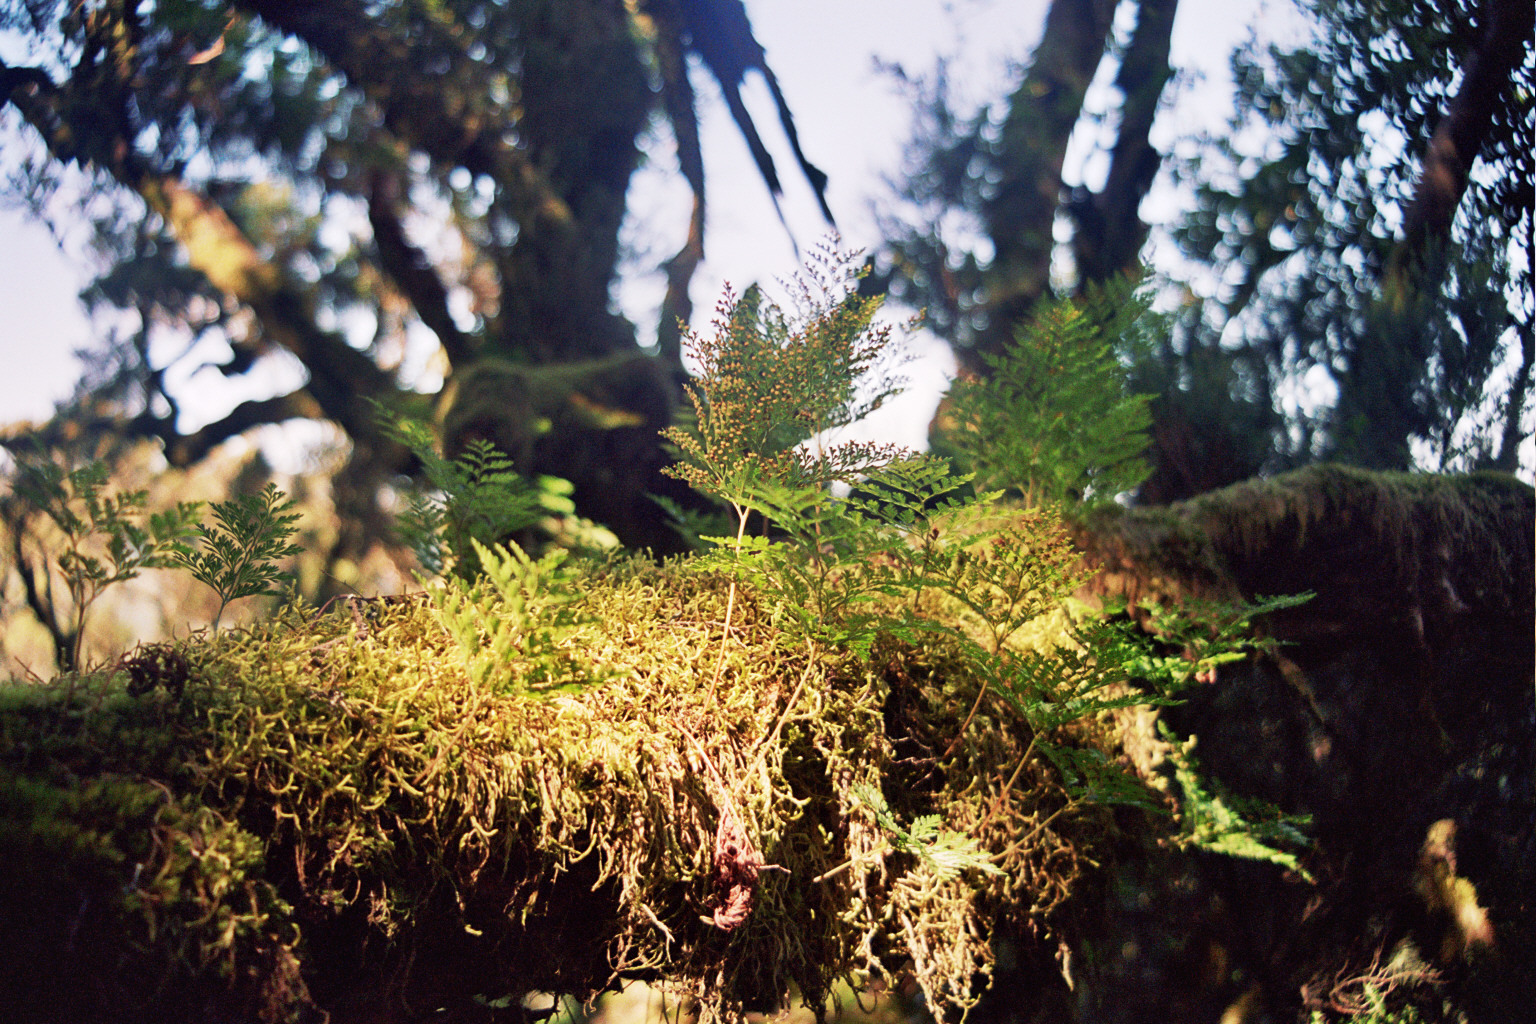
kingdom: Plantae
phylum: Tracheophyta
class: Polypodiopsida
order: Polypodiales
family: Davalliaceae
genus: Davallia
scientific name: Davallia canariensis
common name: Hare's-foot fern
